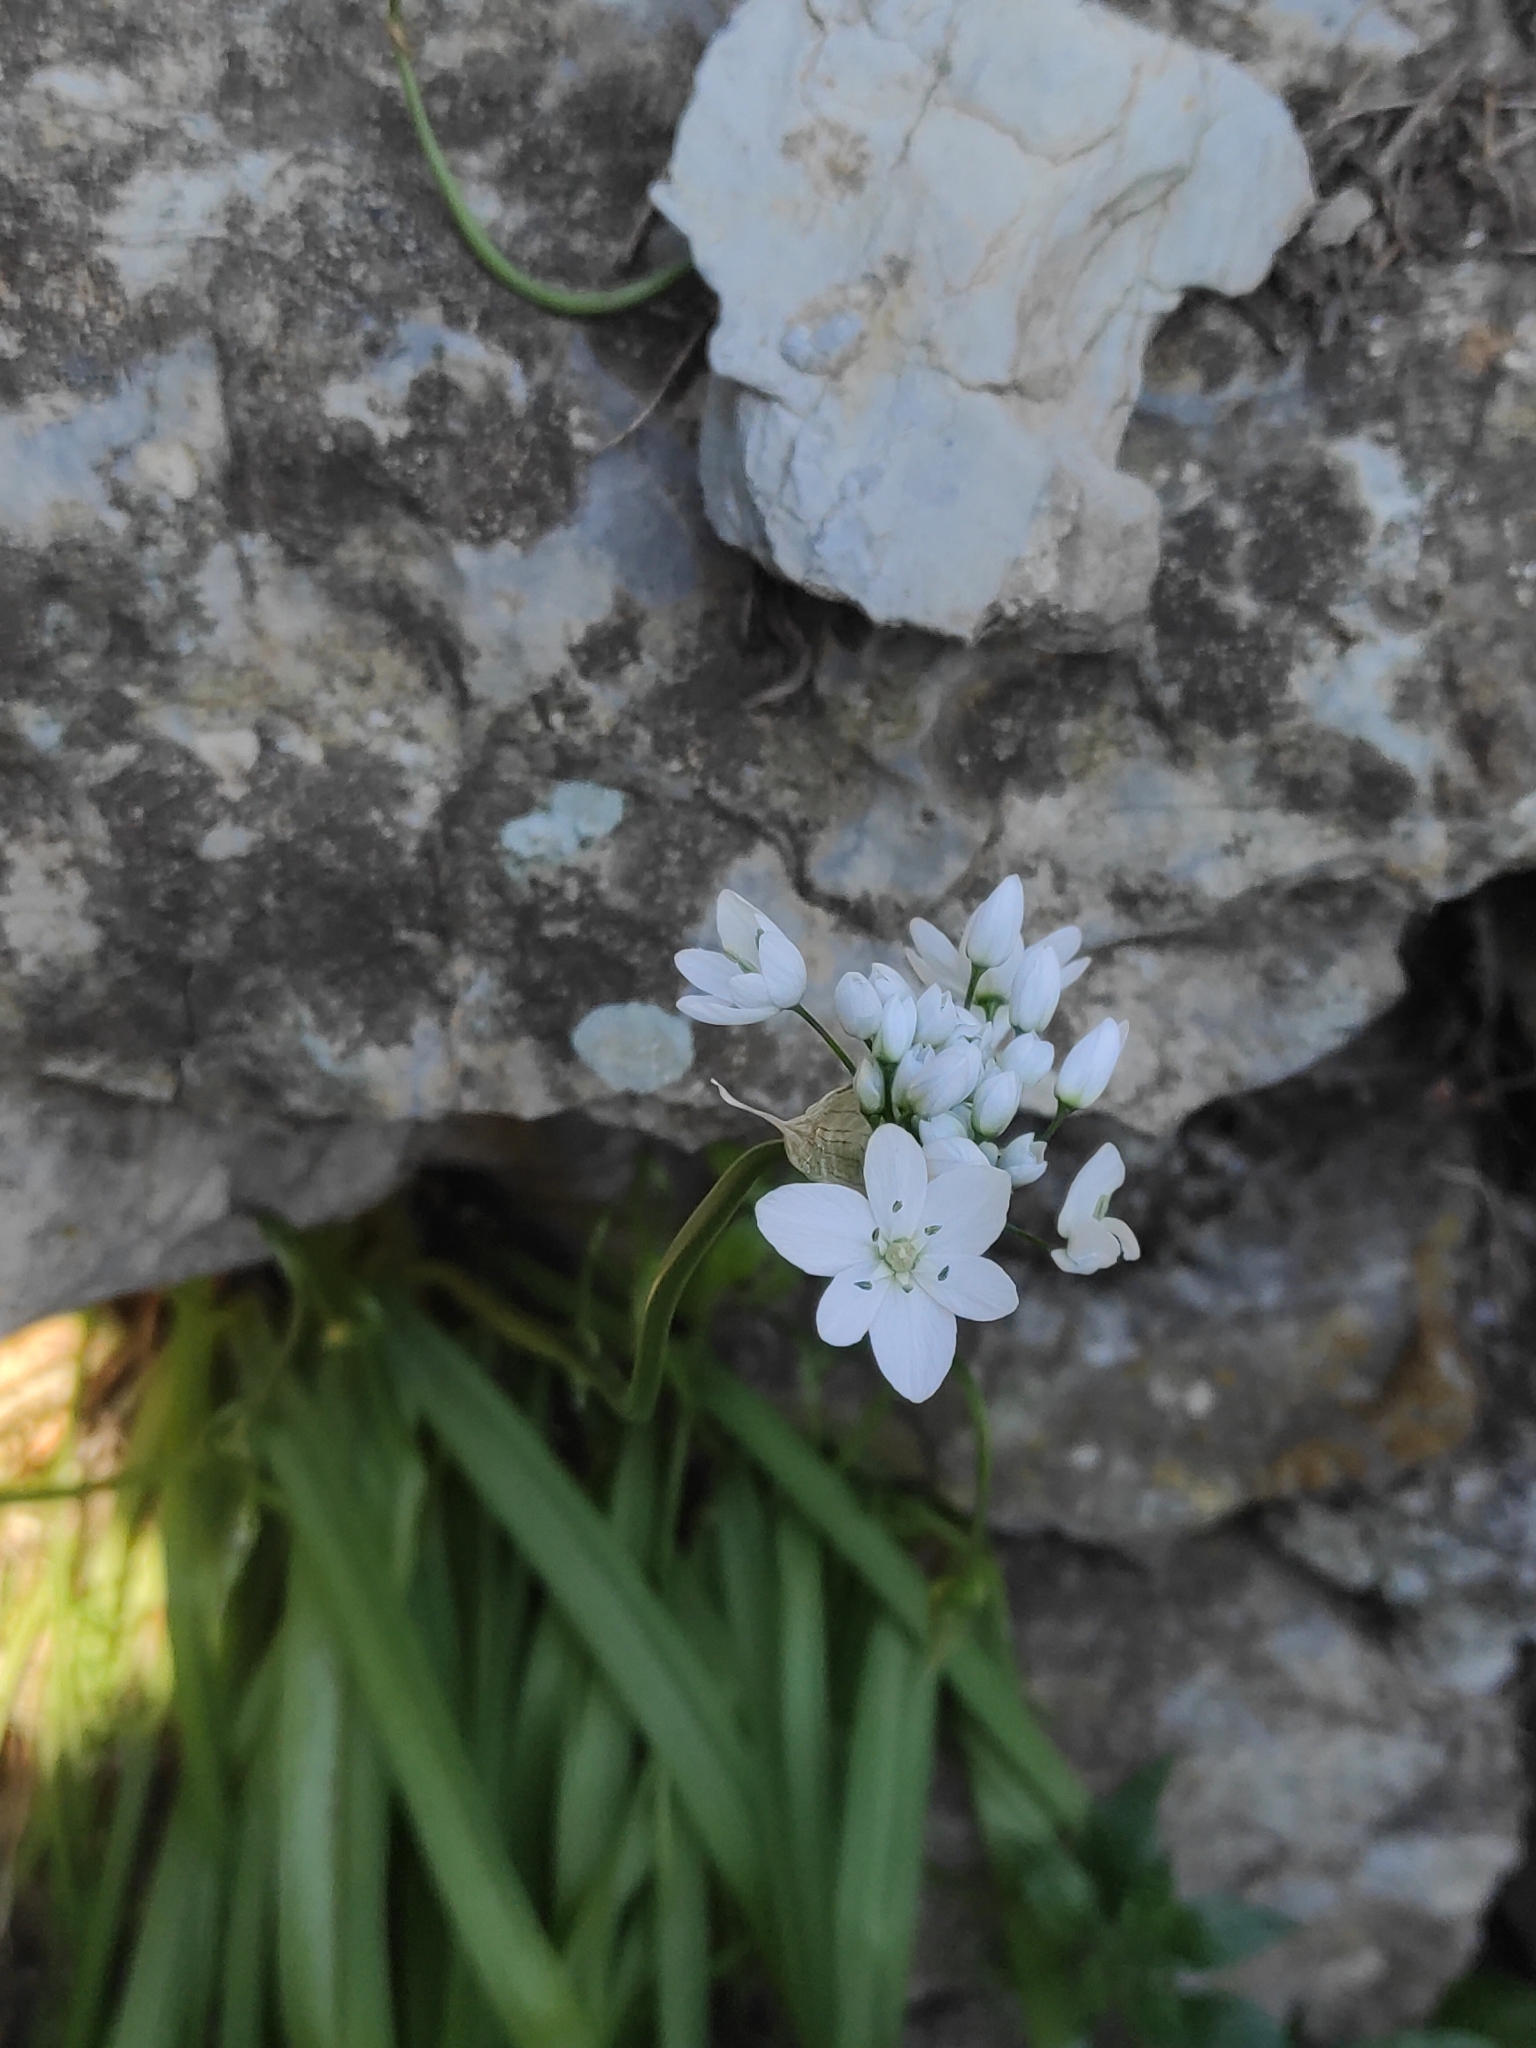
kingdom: Plantae
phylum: Tracheophyta
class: Liliopsida
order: Asparagales
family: Amaryllidaceae
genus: Allium
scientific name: Allium neapolitanum
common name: Neapolitan garlic
